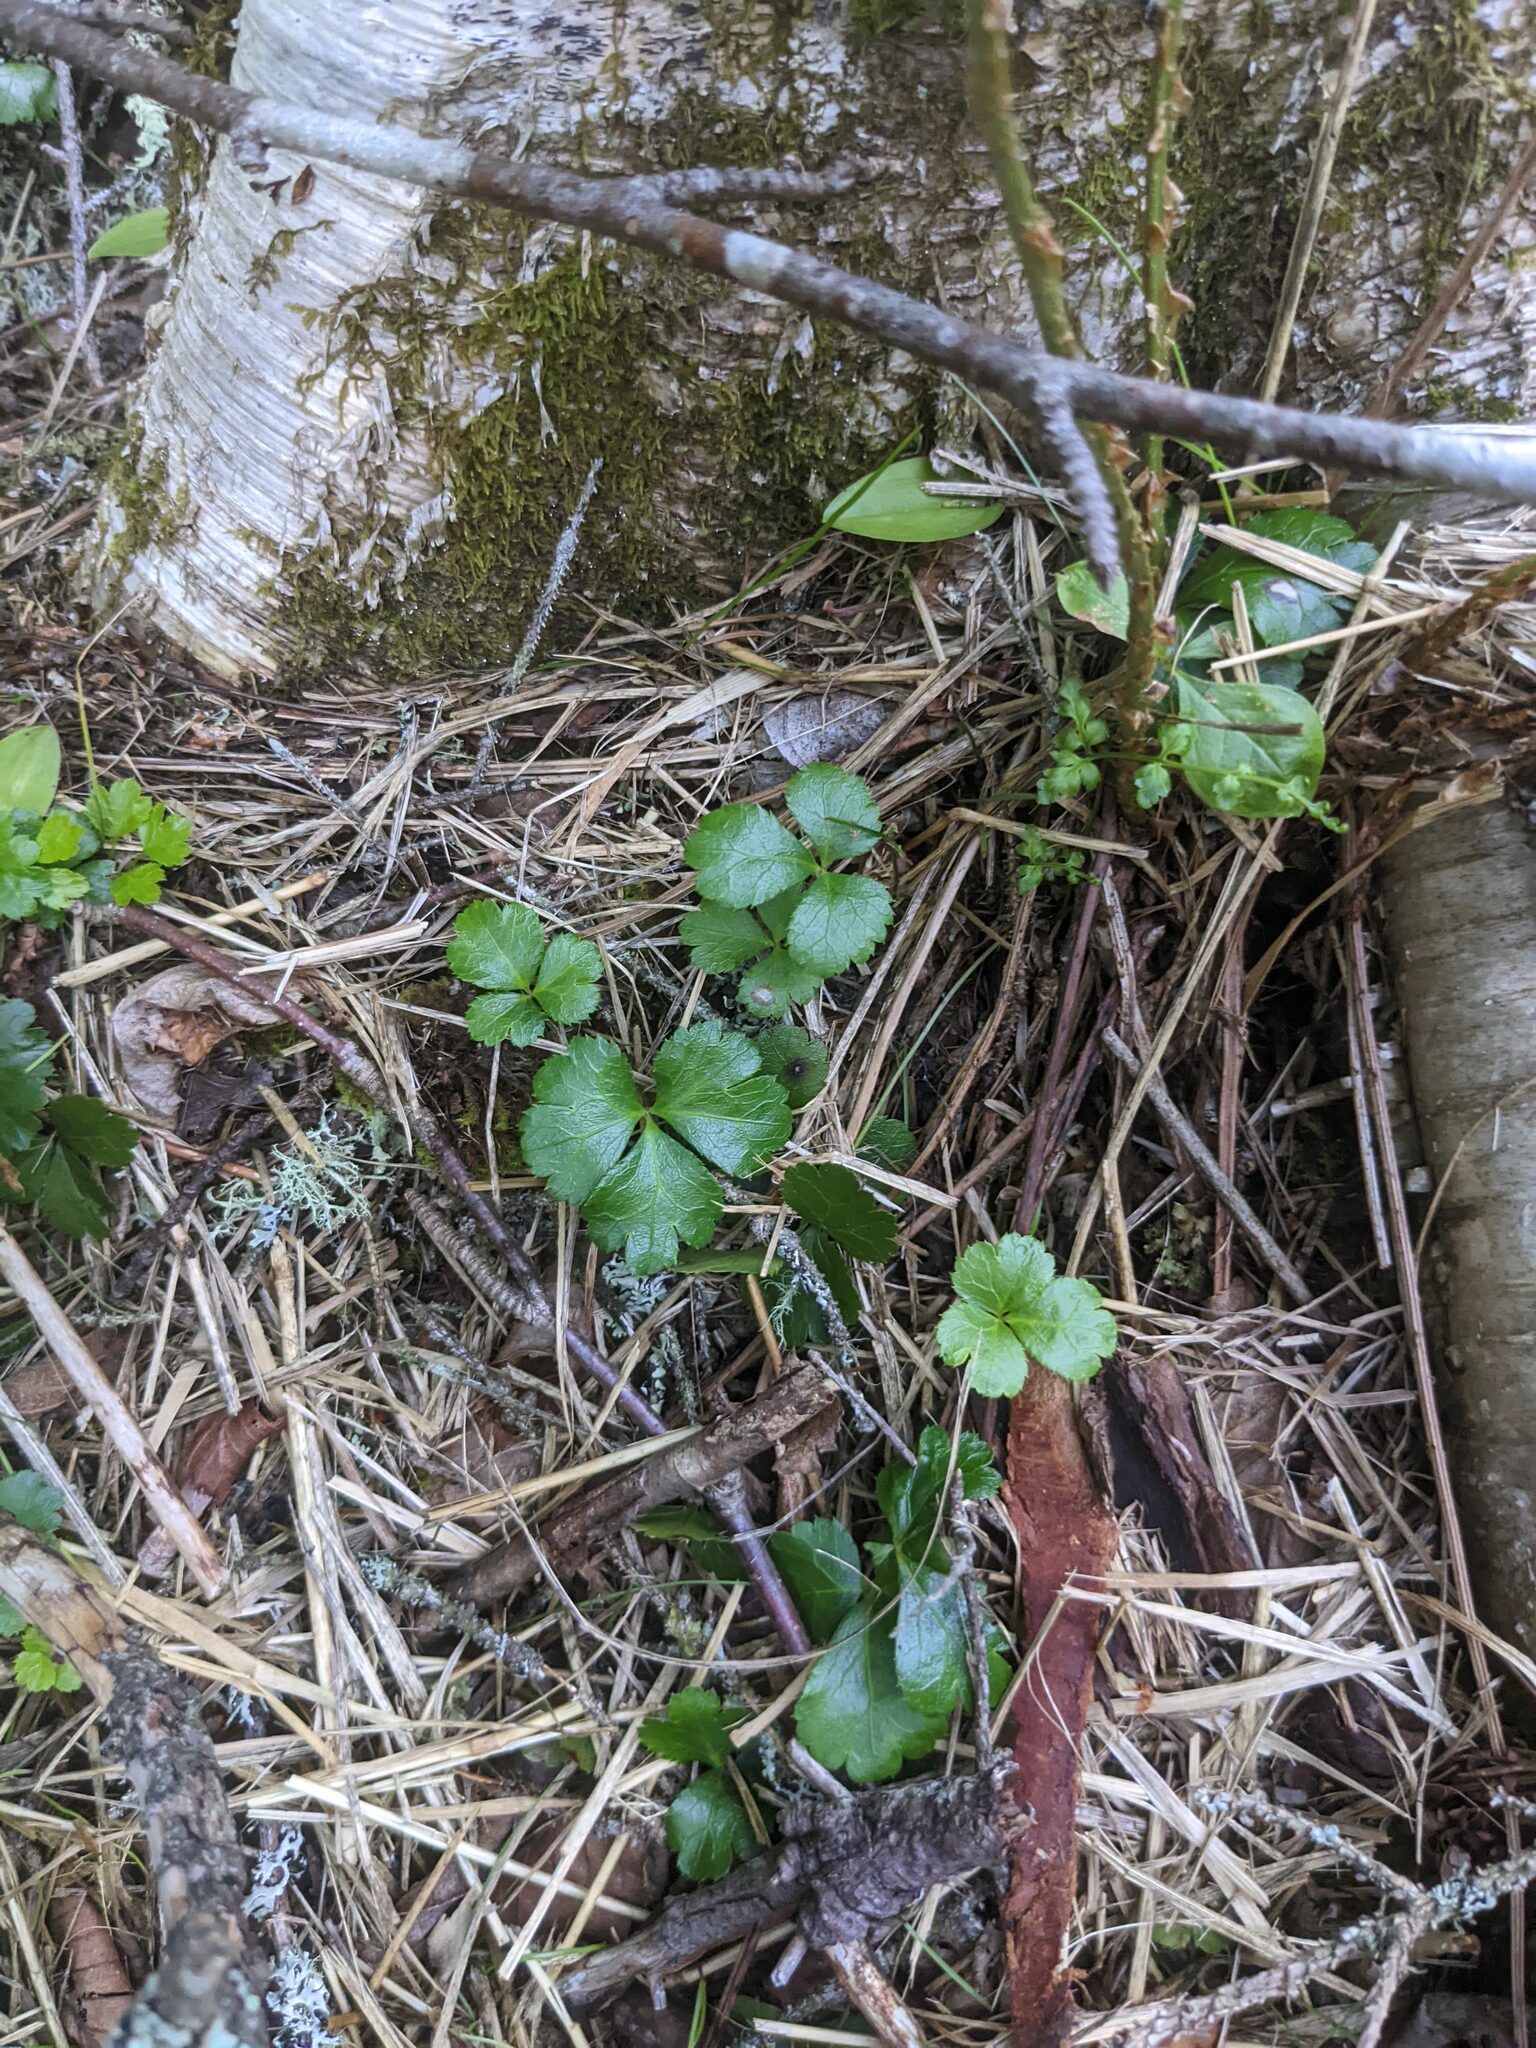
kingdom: Plantae
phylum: Tracheophyta
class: Magnoliopsida
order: Ranunculales
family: Ranunculaceae
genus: Coptis
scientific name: Coptis trifolia
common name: Canker-root
